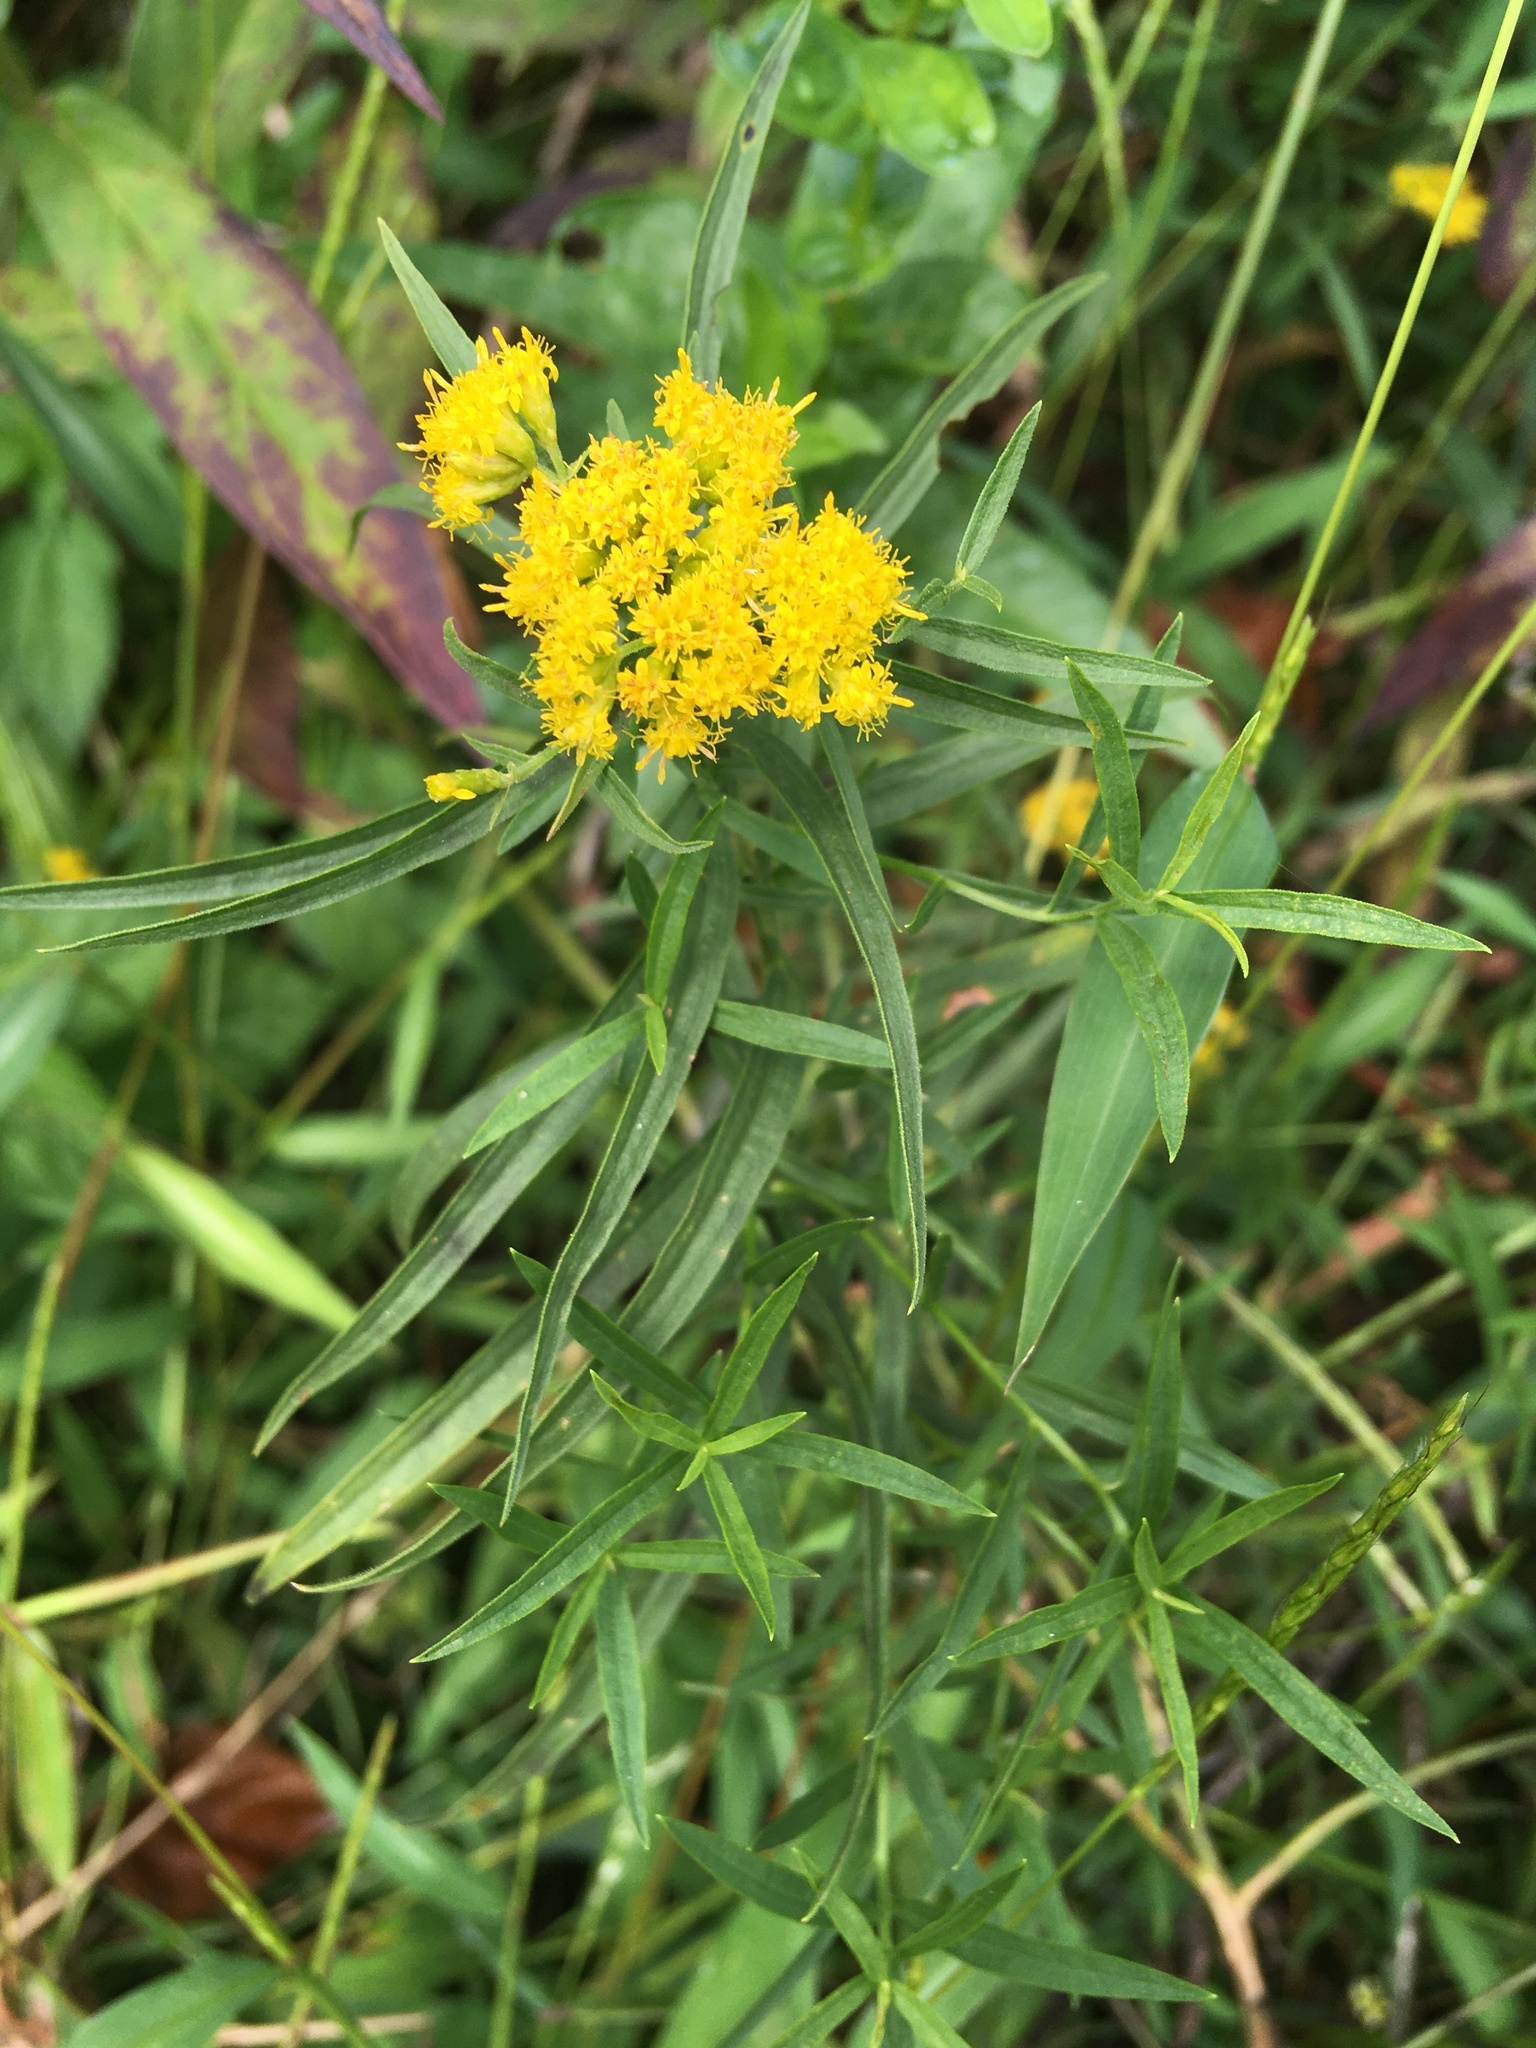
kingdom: Plantae
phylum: Tracheophyta
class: Magnoliopsida
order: Asterales
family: Asteraceae
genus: Euthamia
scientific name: Euthamia graminifolia
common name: Common goldentop
